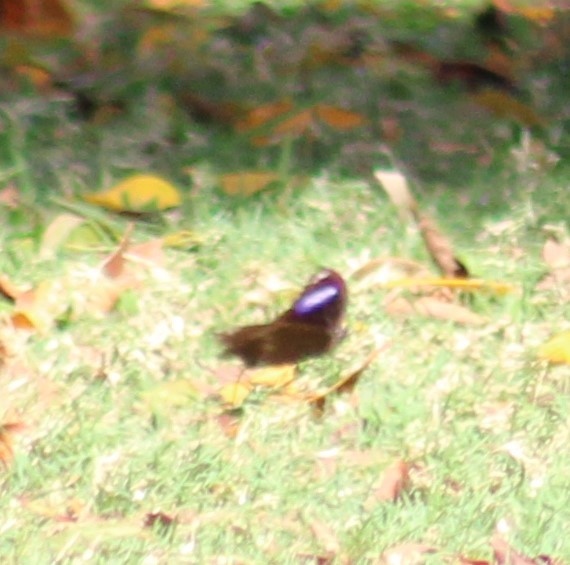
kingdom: Animalia
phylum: Arthropoda
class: Insecta
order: Lepidoptera
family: Nymphalidae
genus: Hypolimnas
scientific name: Hypolimnas bolina
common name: Great eggfly
